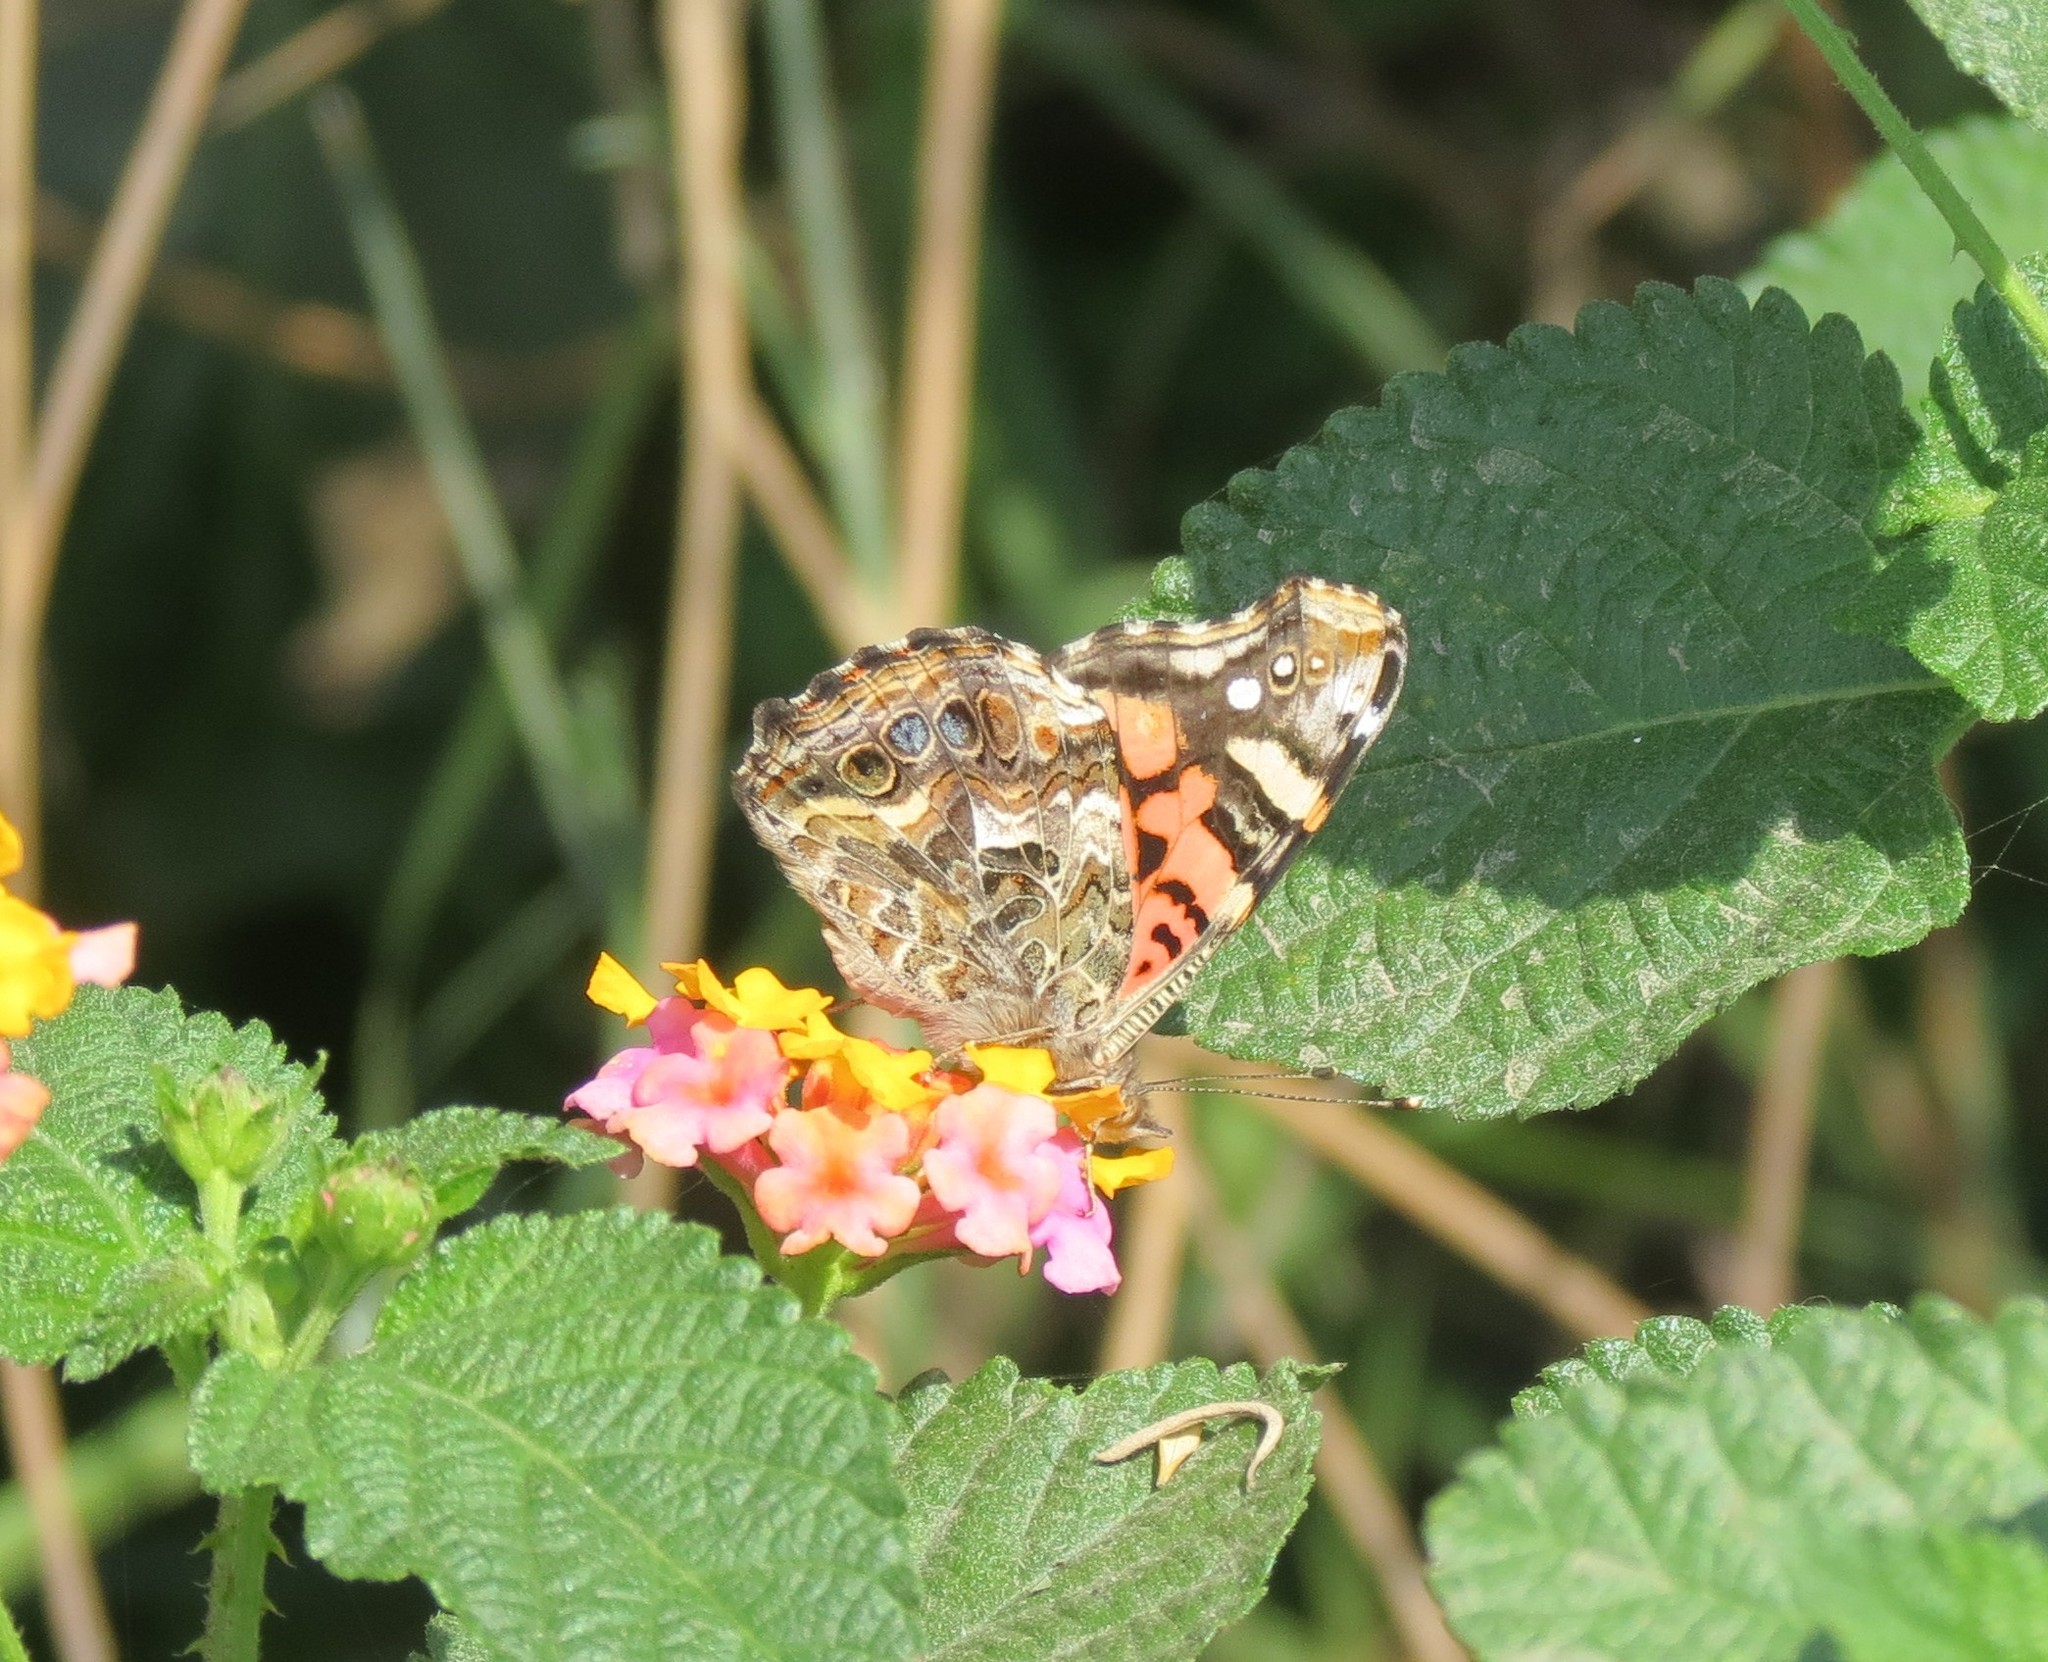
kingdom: Animalia
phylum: Arthropoda
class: Insecta
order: Lepidoptera
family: Nymphalidae
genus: Vanessa
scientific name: Vanessa carye
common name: Subtropical lady
